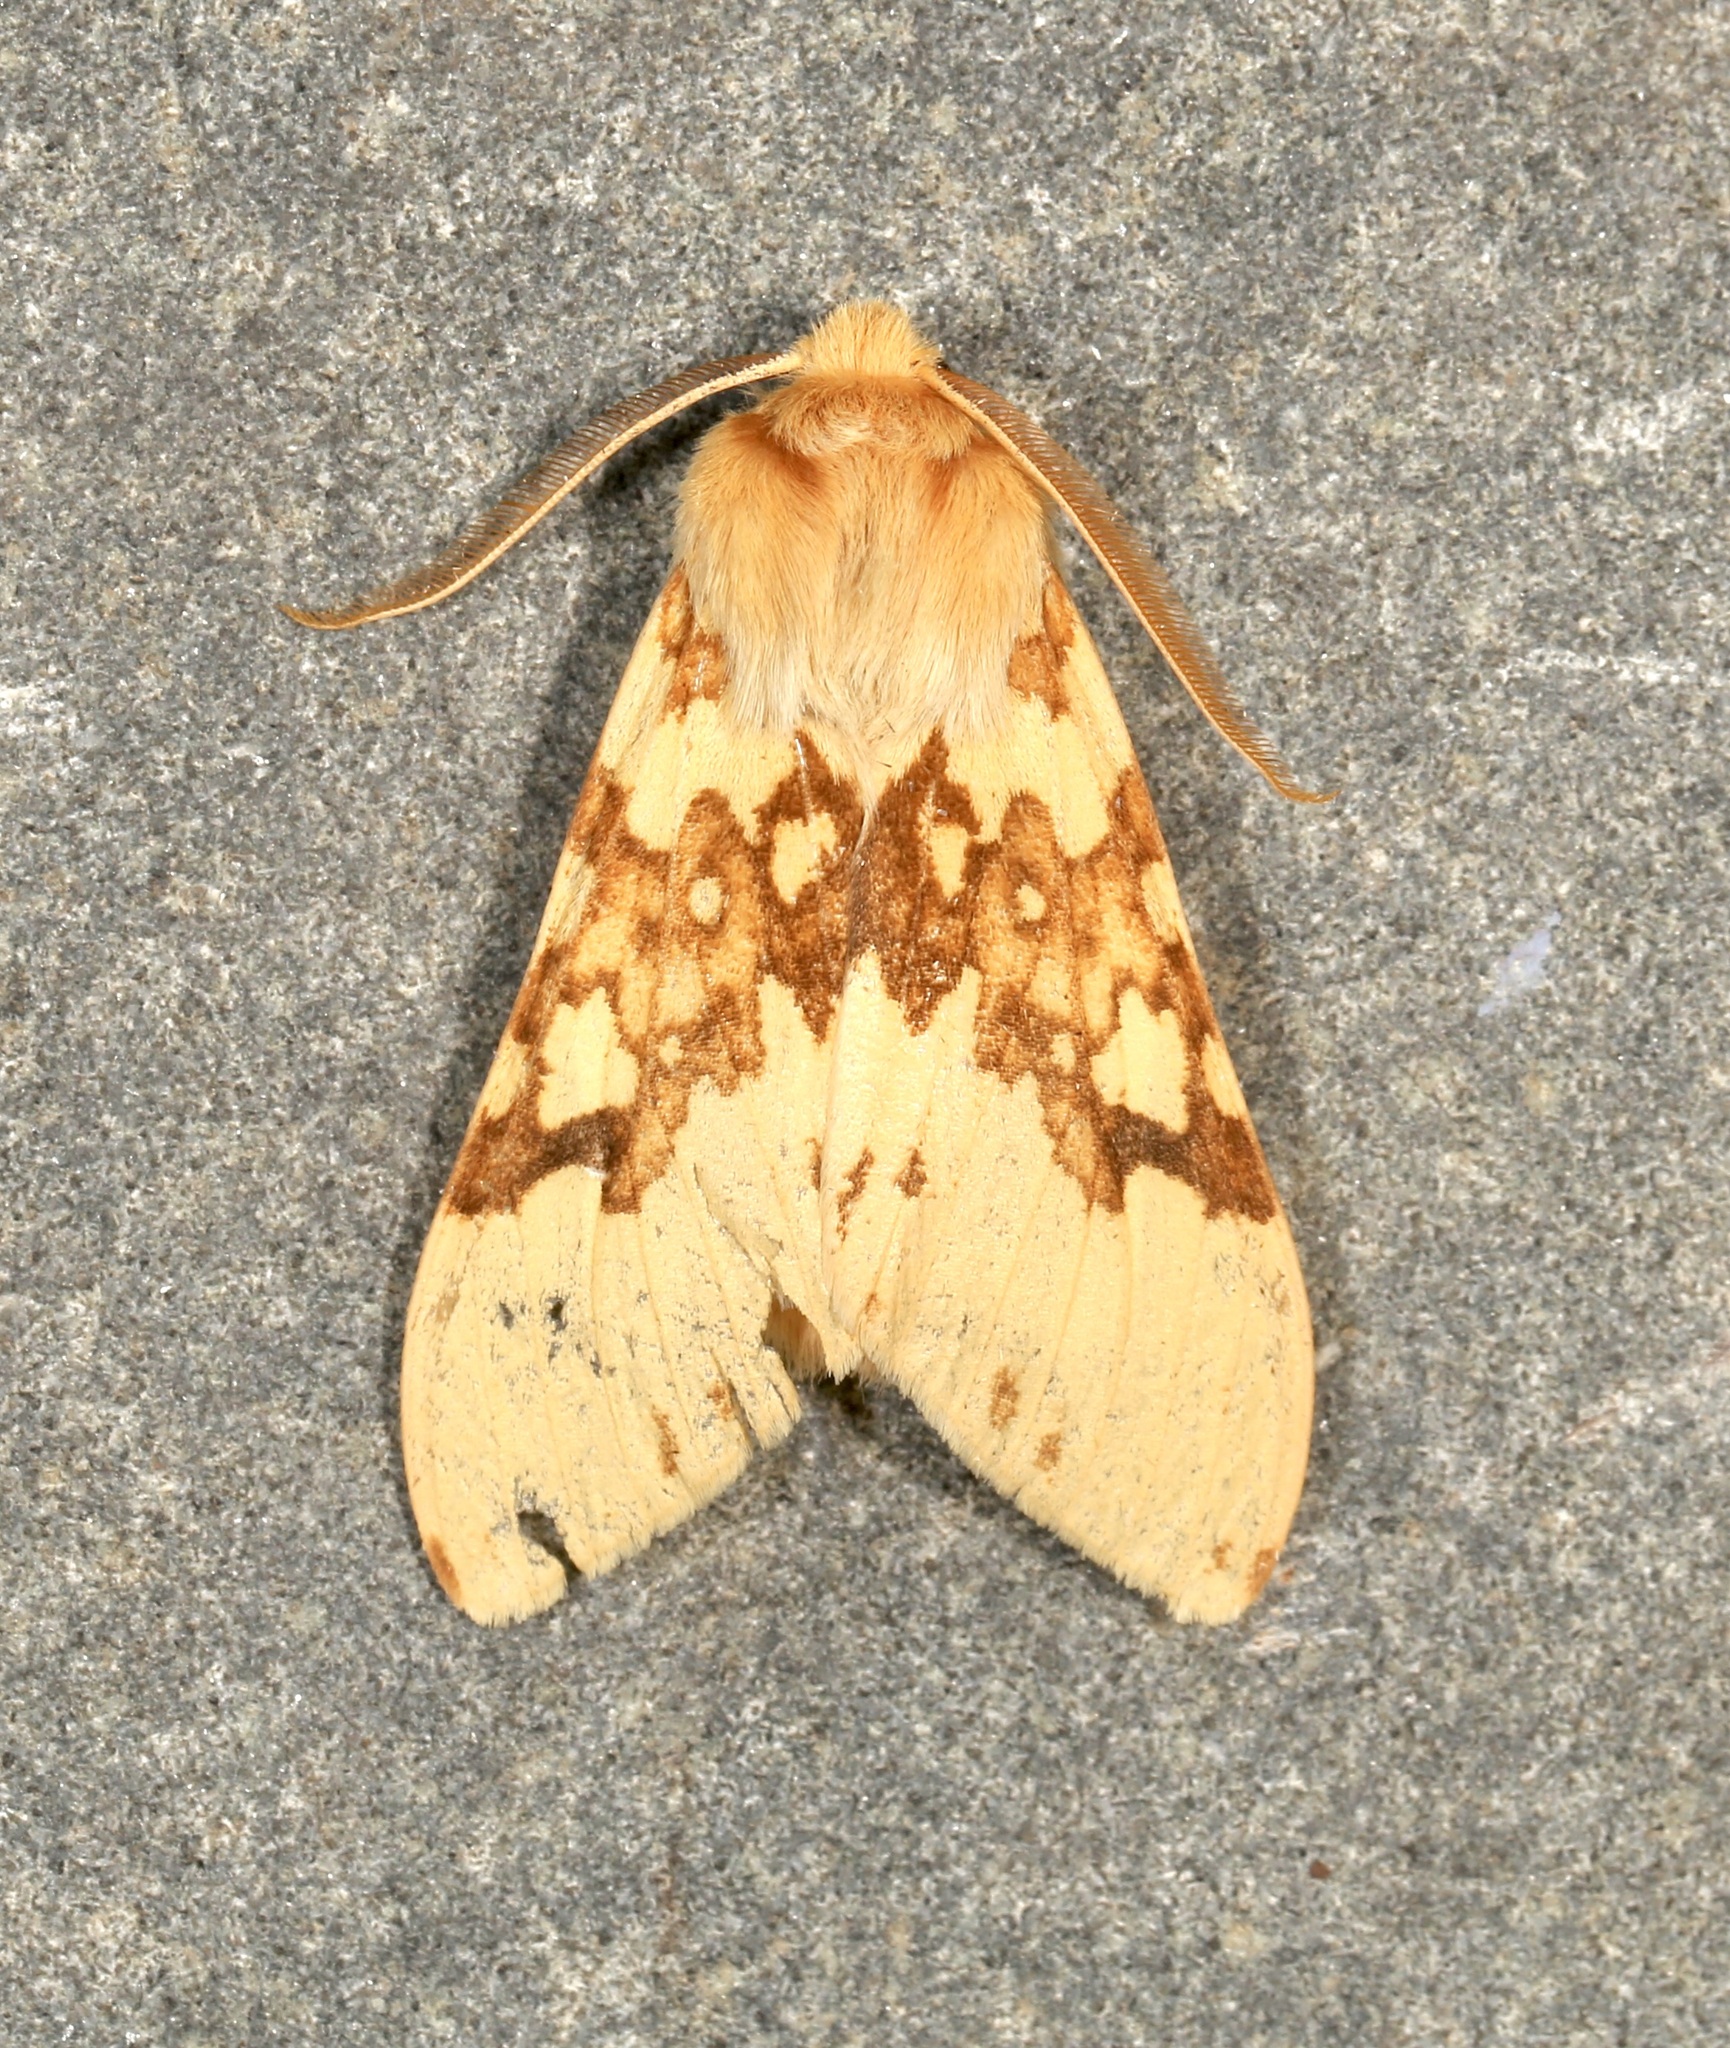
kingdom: Animalia
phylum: Arthropoda
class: Insecta
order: Lepidoptera
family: Erebidae
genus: Lophocampa
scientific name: Lophocampa maculata
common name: Spotted tussock moth
